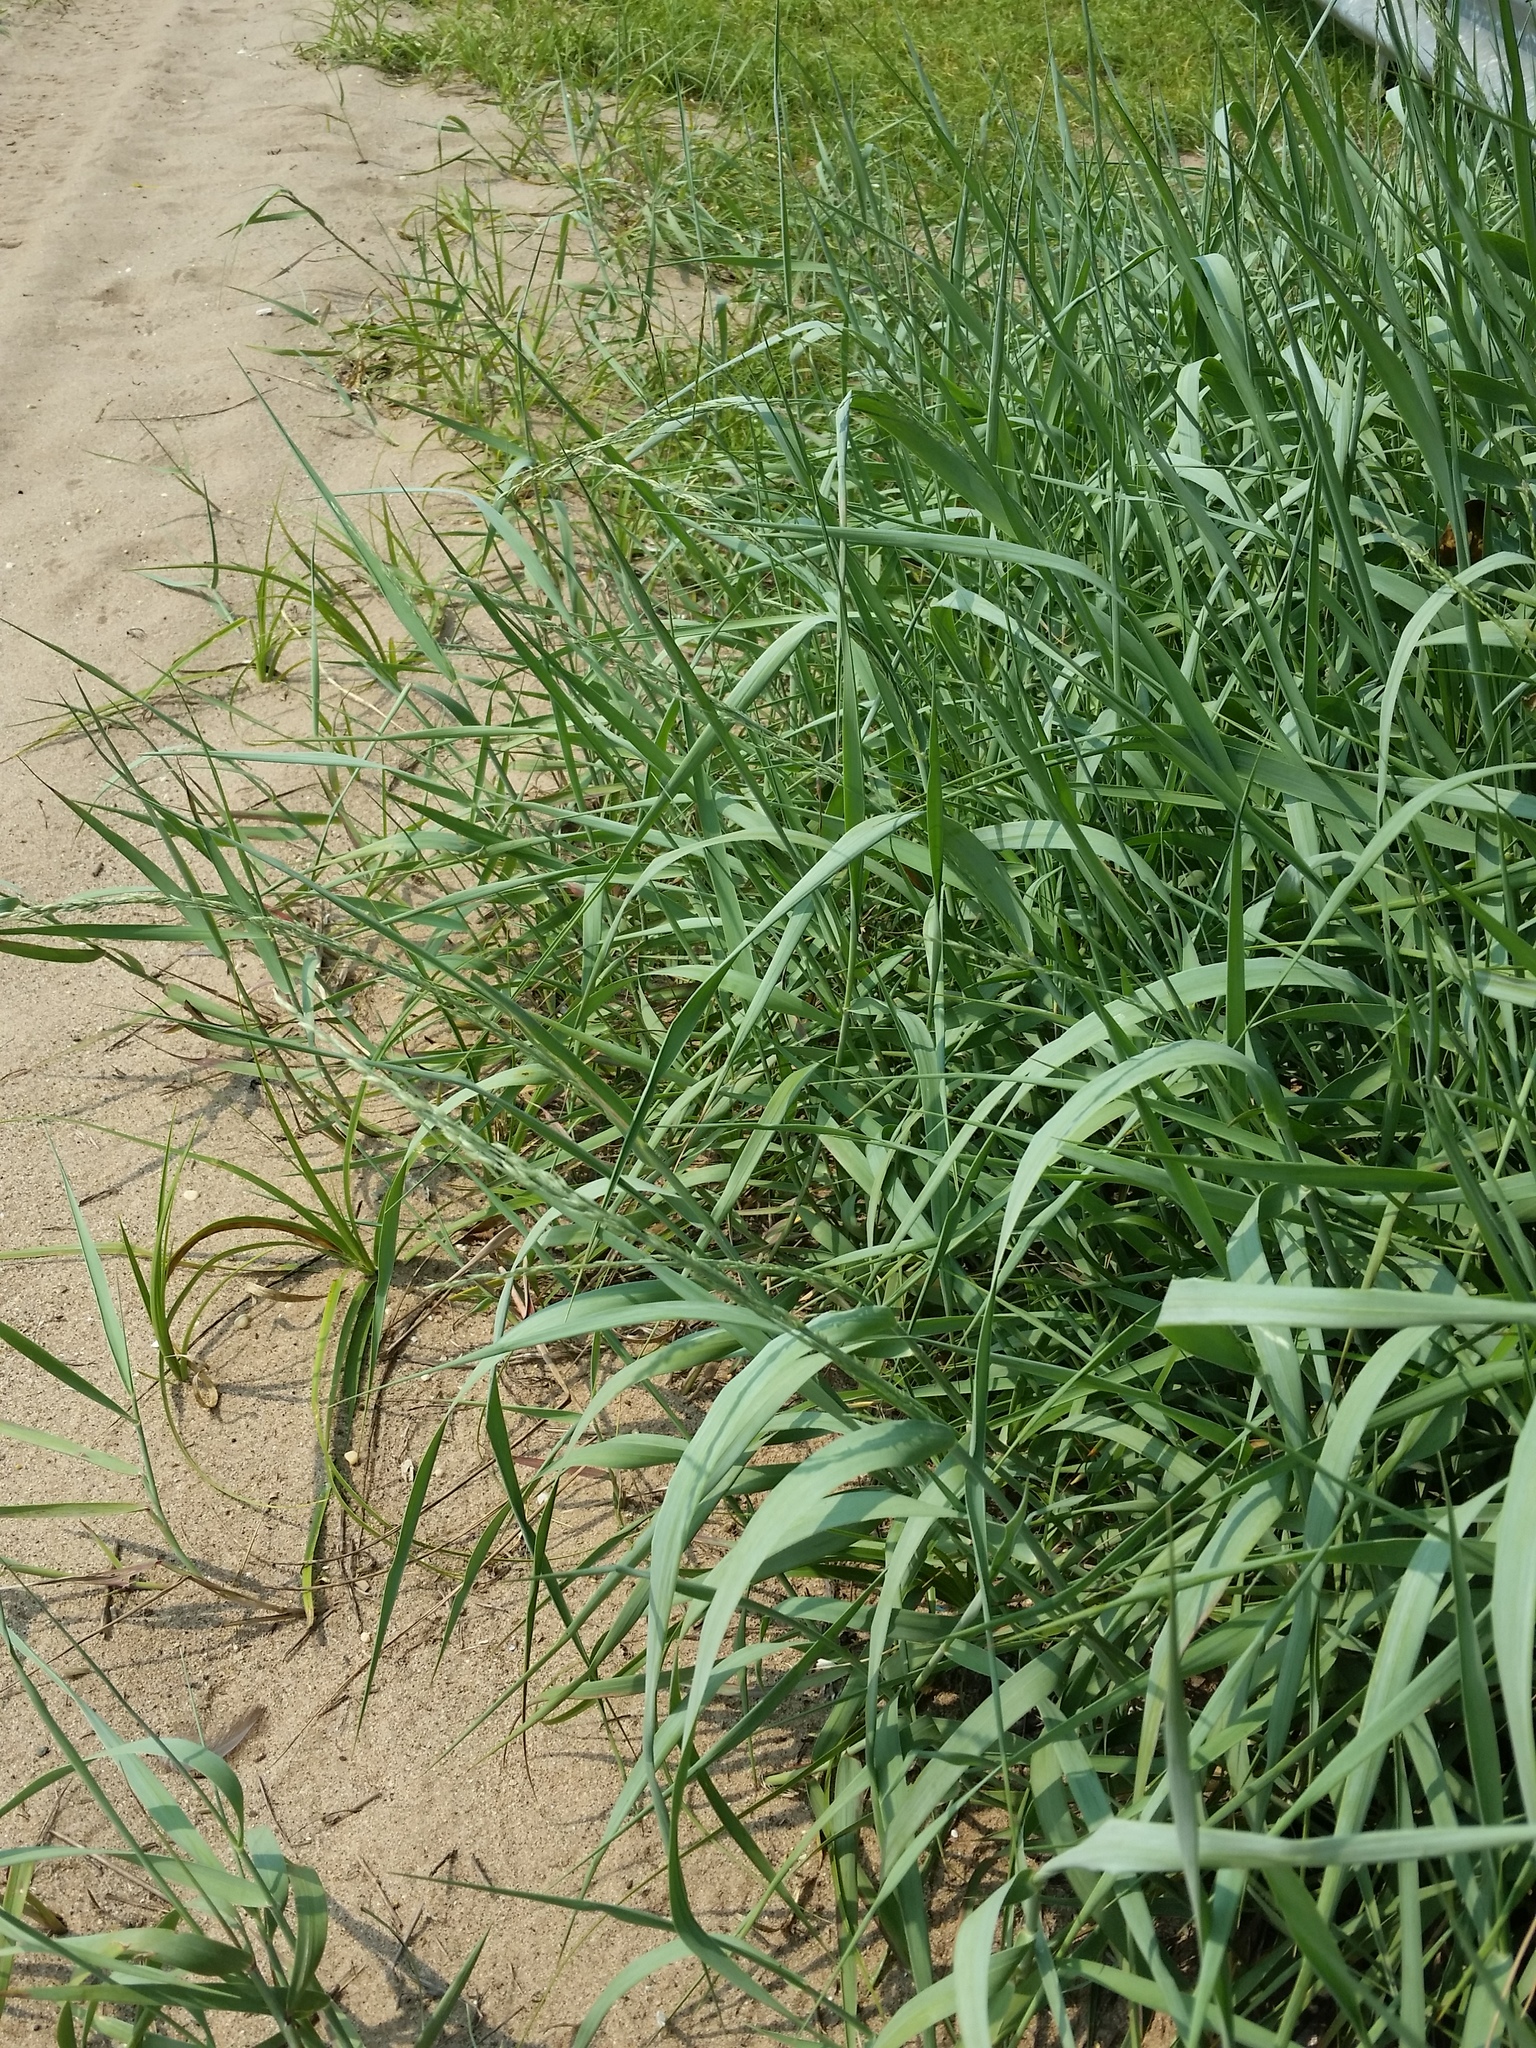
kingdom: Plantae
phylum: Tracheophyta
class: Liliopsida
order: Poales
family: Poaceae
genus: Panicum
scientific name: Panicum amarum
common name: Bitter panicum
